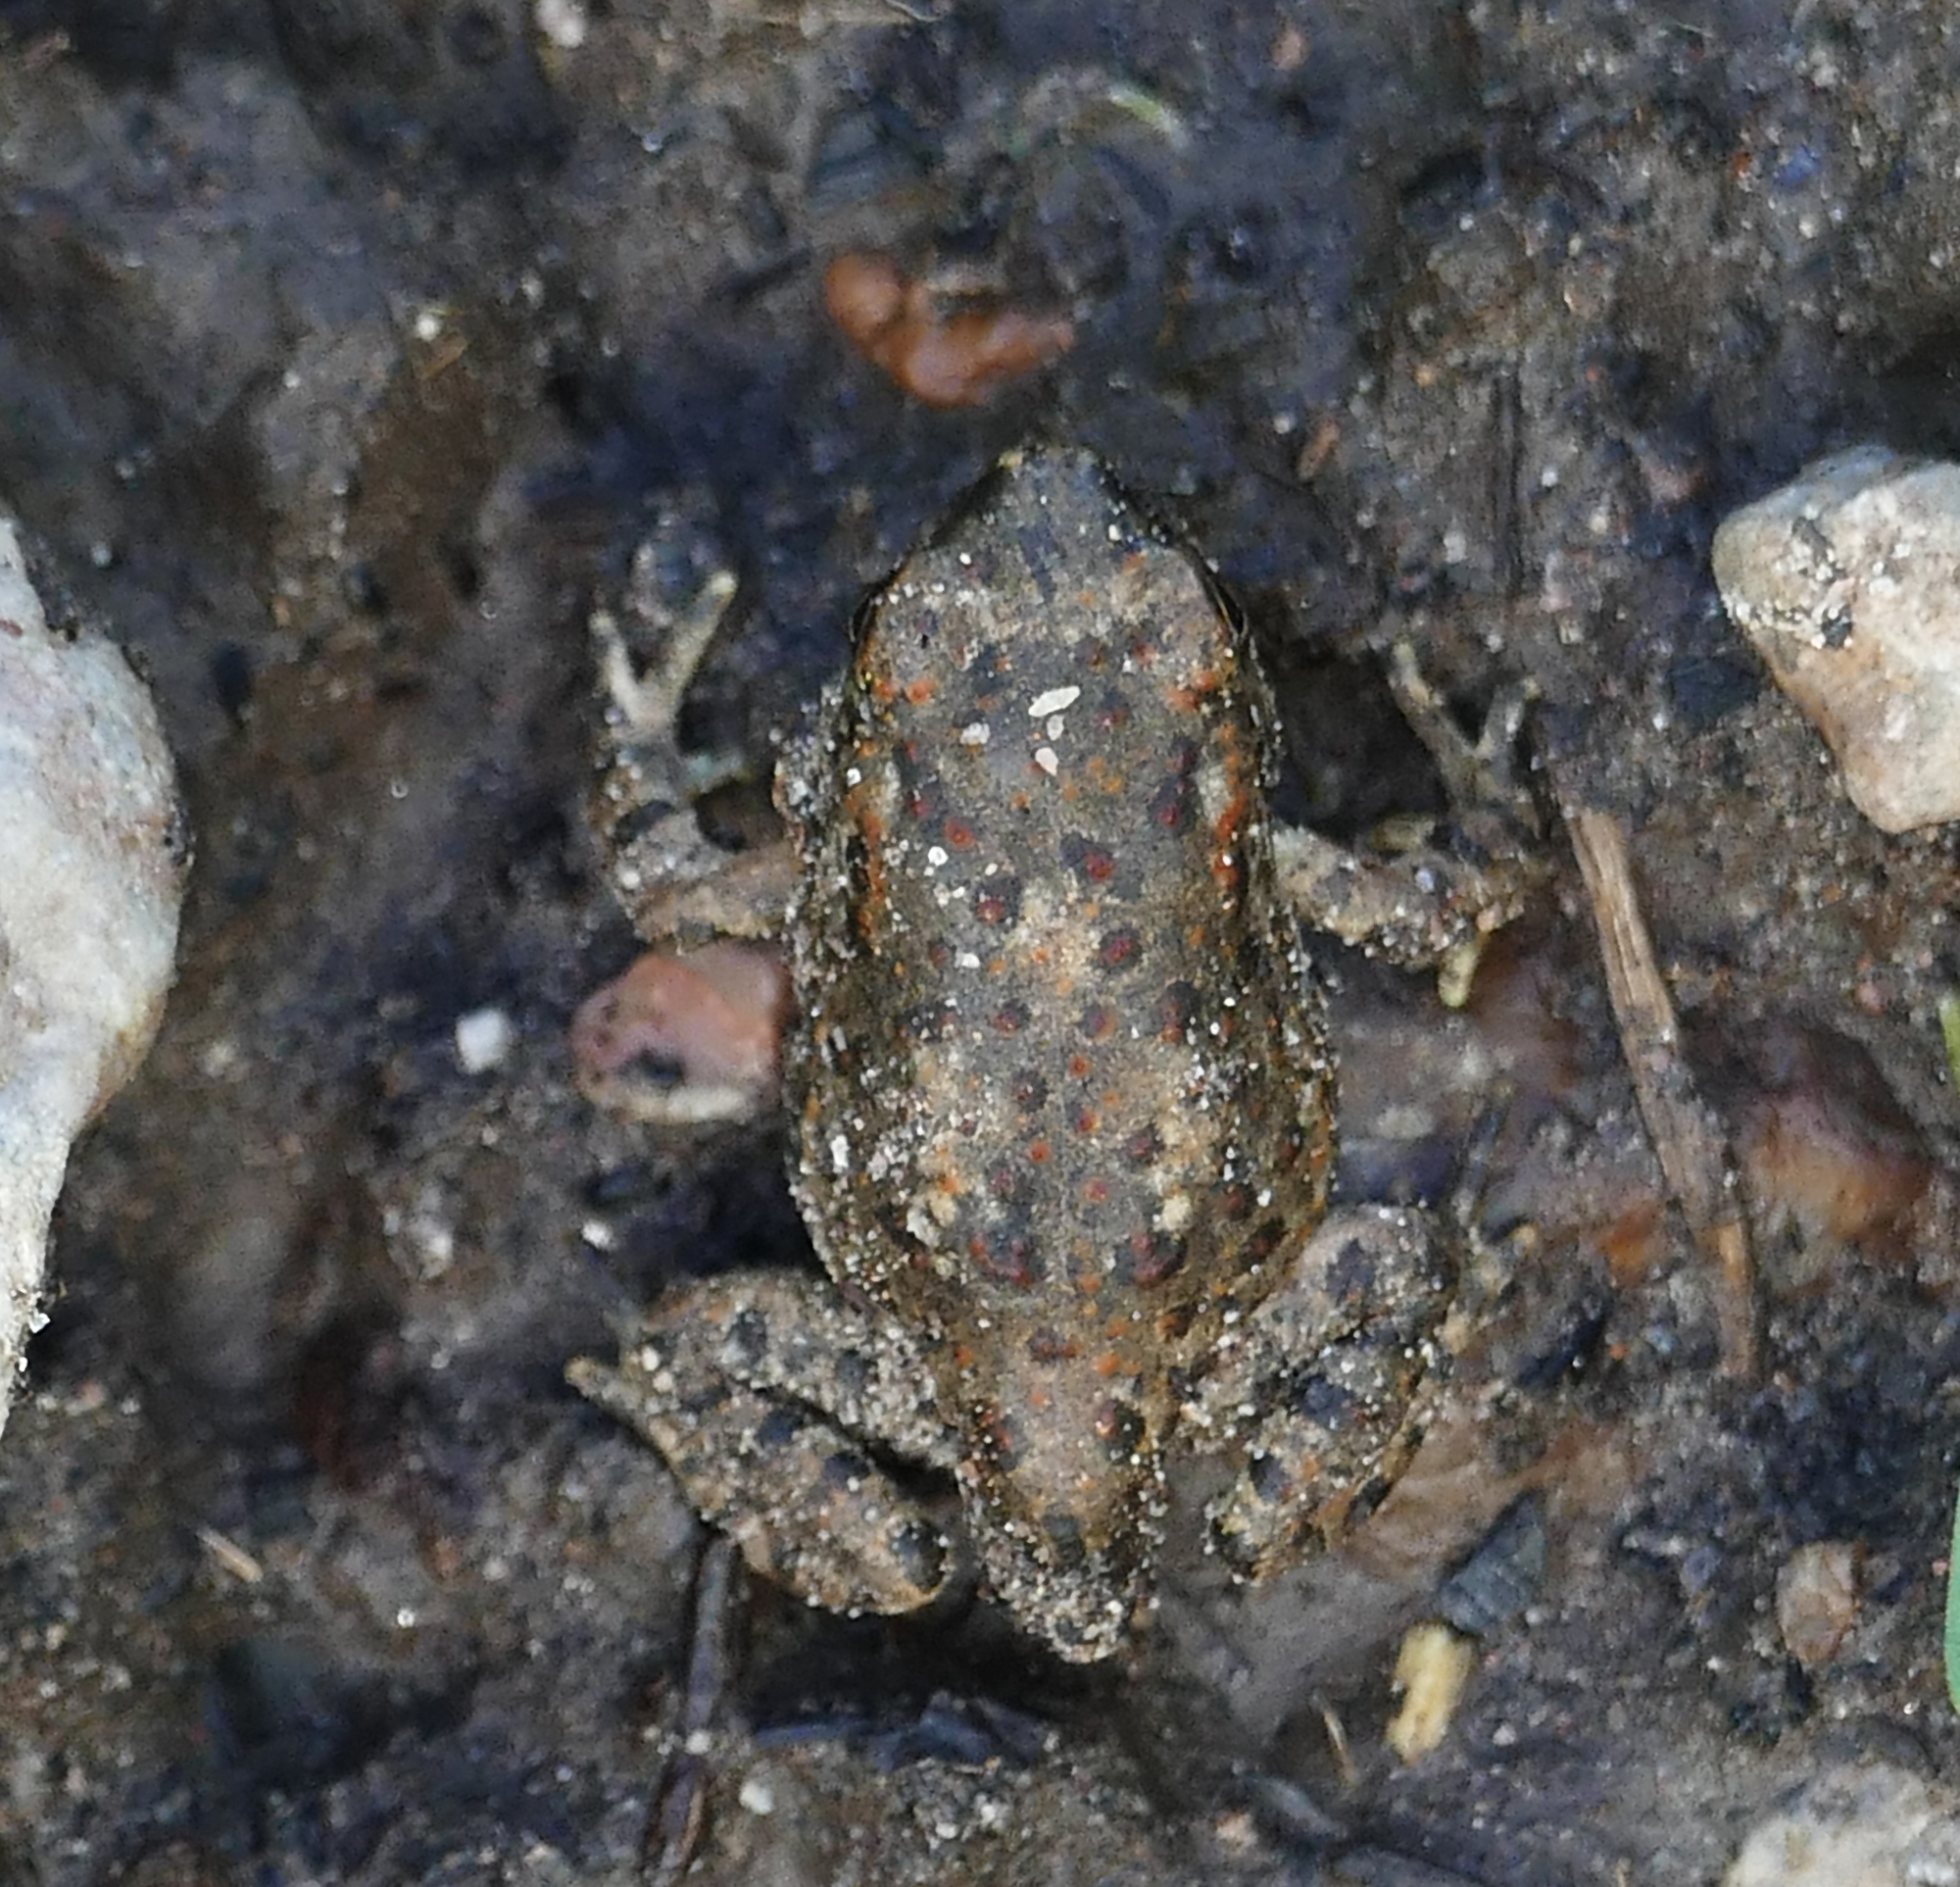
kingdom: Animalia
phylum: Chordata
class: Amphibia
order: Anura
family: Bufonidae
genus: Anaxyrus
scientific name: Anaxyrus microscaphus
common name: Arizona toad
